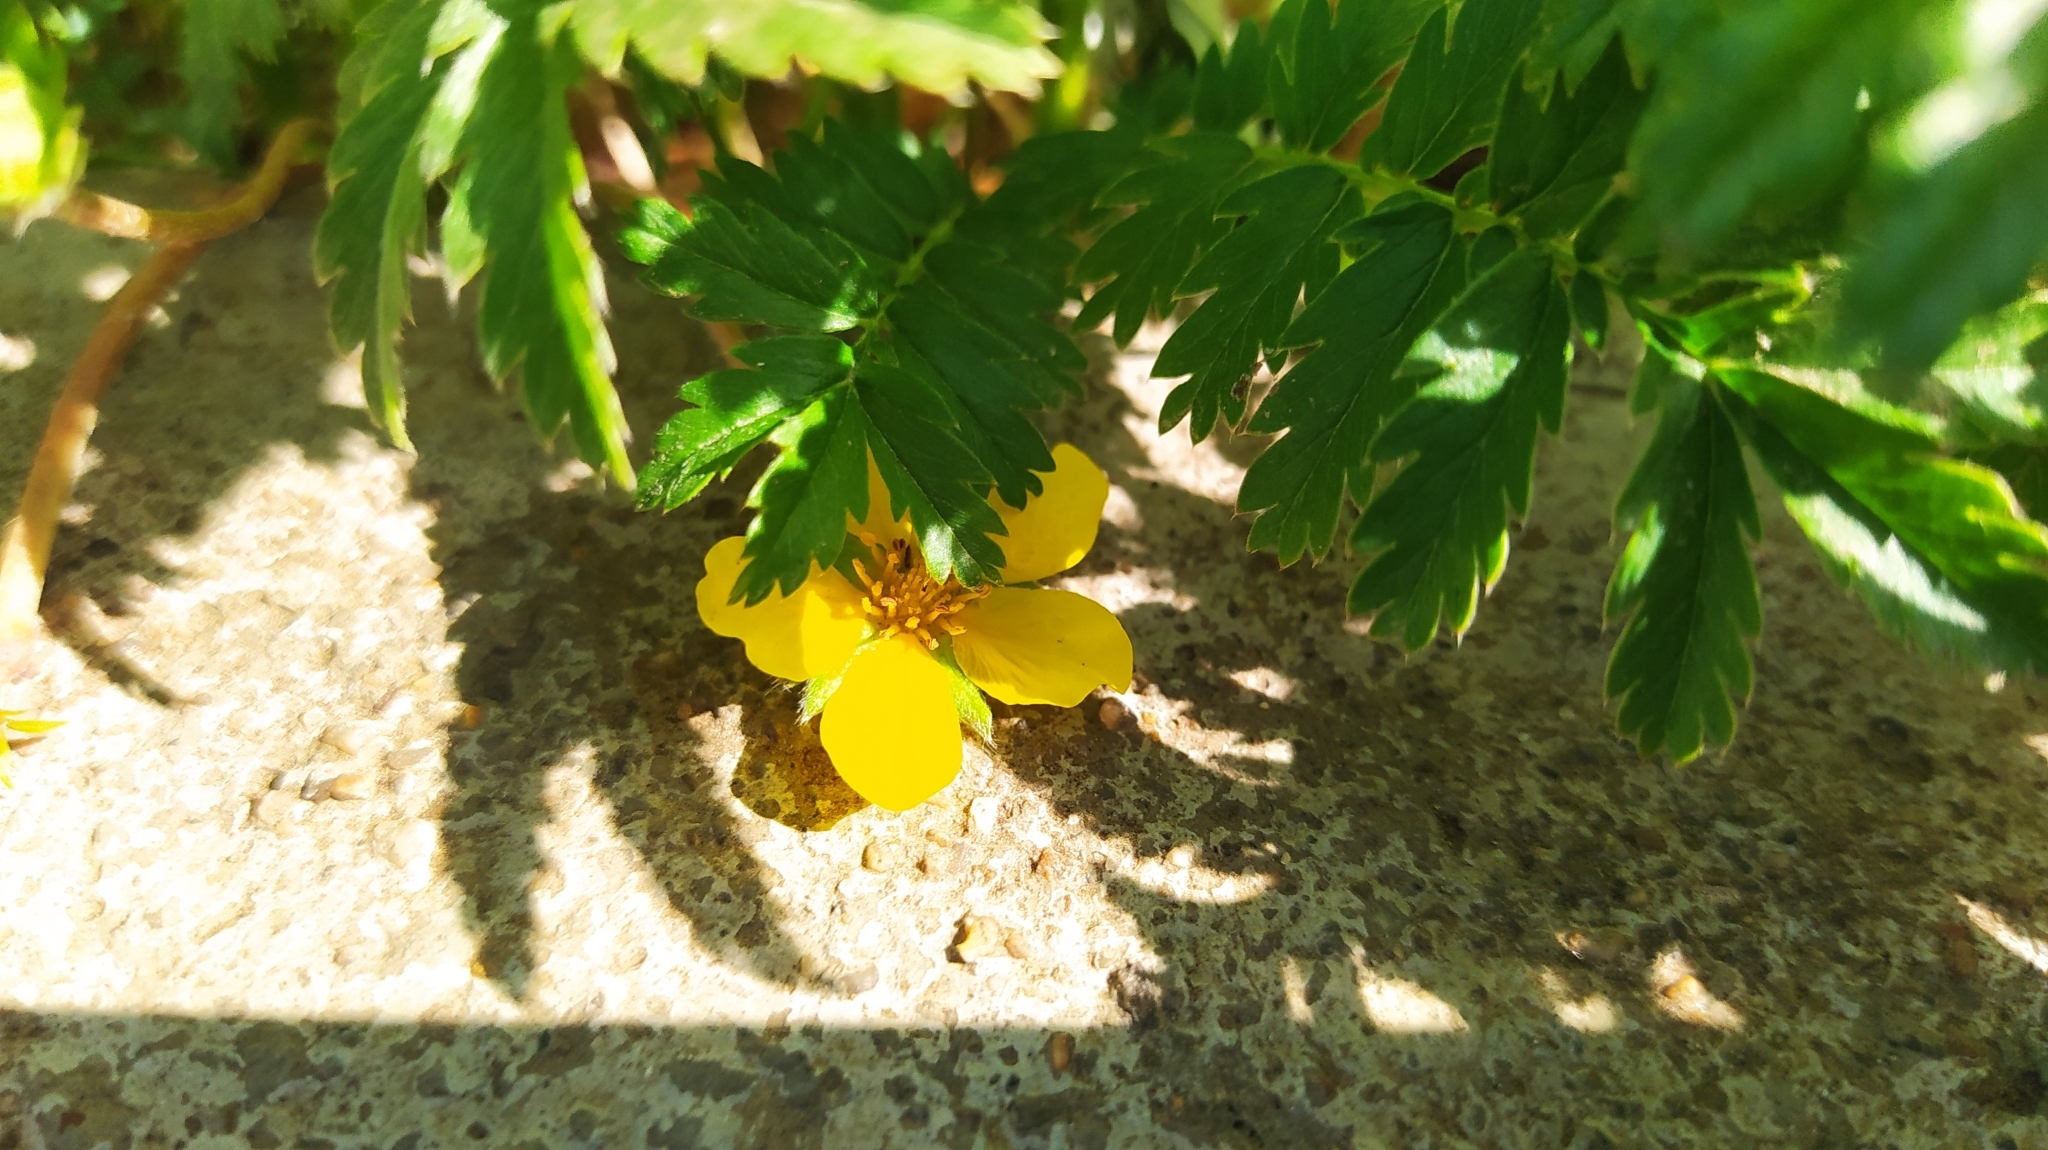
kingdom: Plantae
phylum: Tracheophyta
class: Magnoliopsida
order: Rosales
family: Rosaceae
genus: Argentina
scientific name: Argentina anserina
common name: Common silverweed
